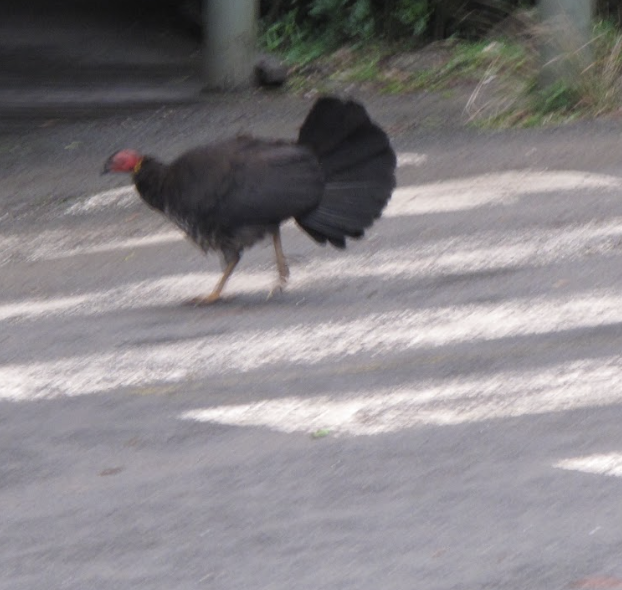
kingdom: Animalia
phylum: Chordata
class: Aves
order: Galliformes
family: Megapodiidae
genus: Alectura
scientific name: Alectura lathami
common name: Australian brushturkey
